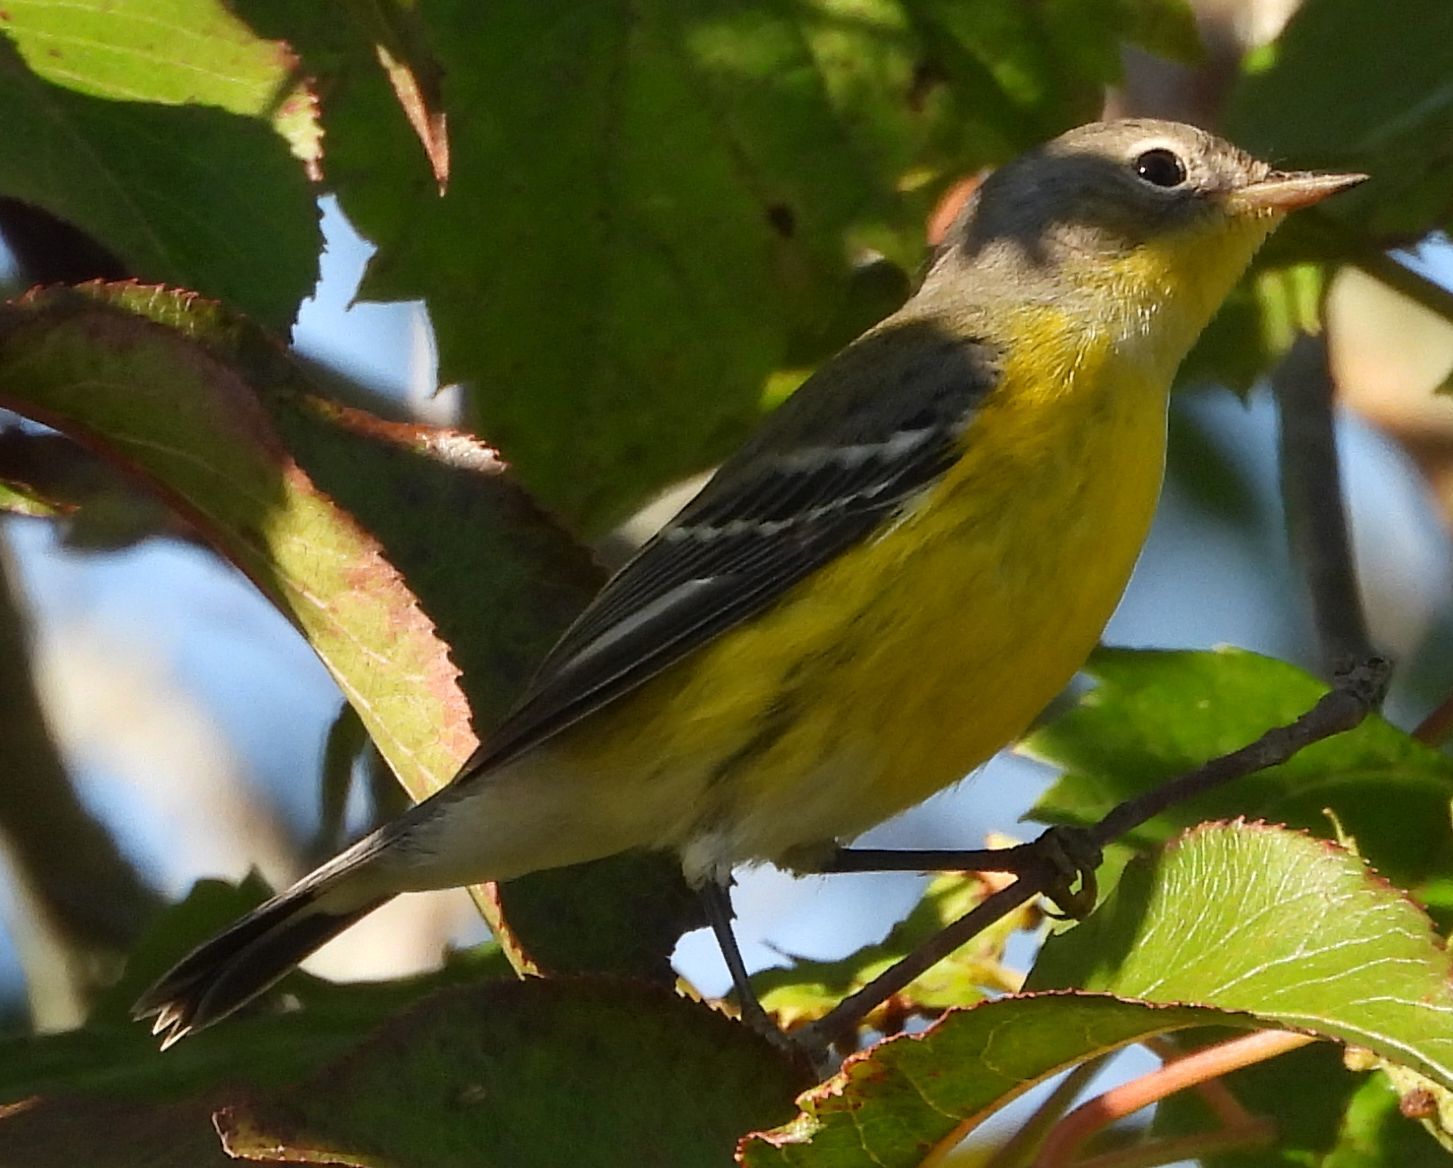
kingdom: Animalia
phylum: Chordata
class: Aves
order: Passeriformes
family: Parulidae
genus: Setophaga
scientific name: Setophaga magnolia
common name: Magnolia warbler
